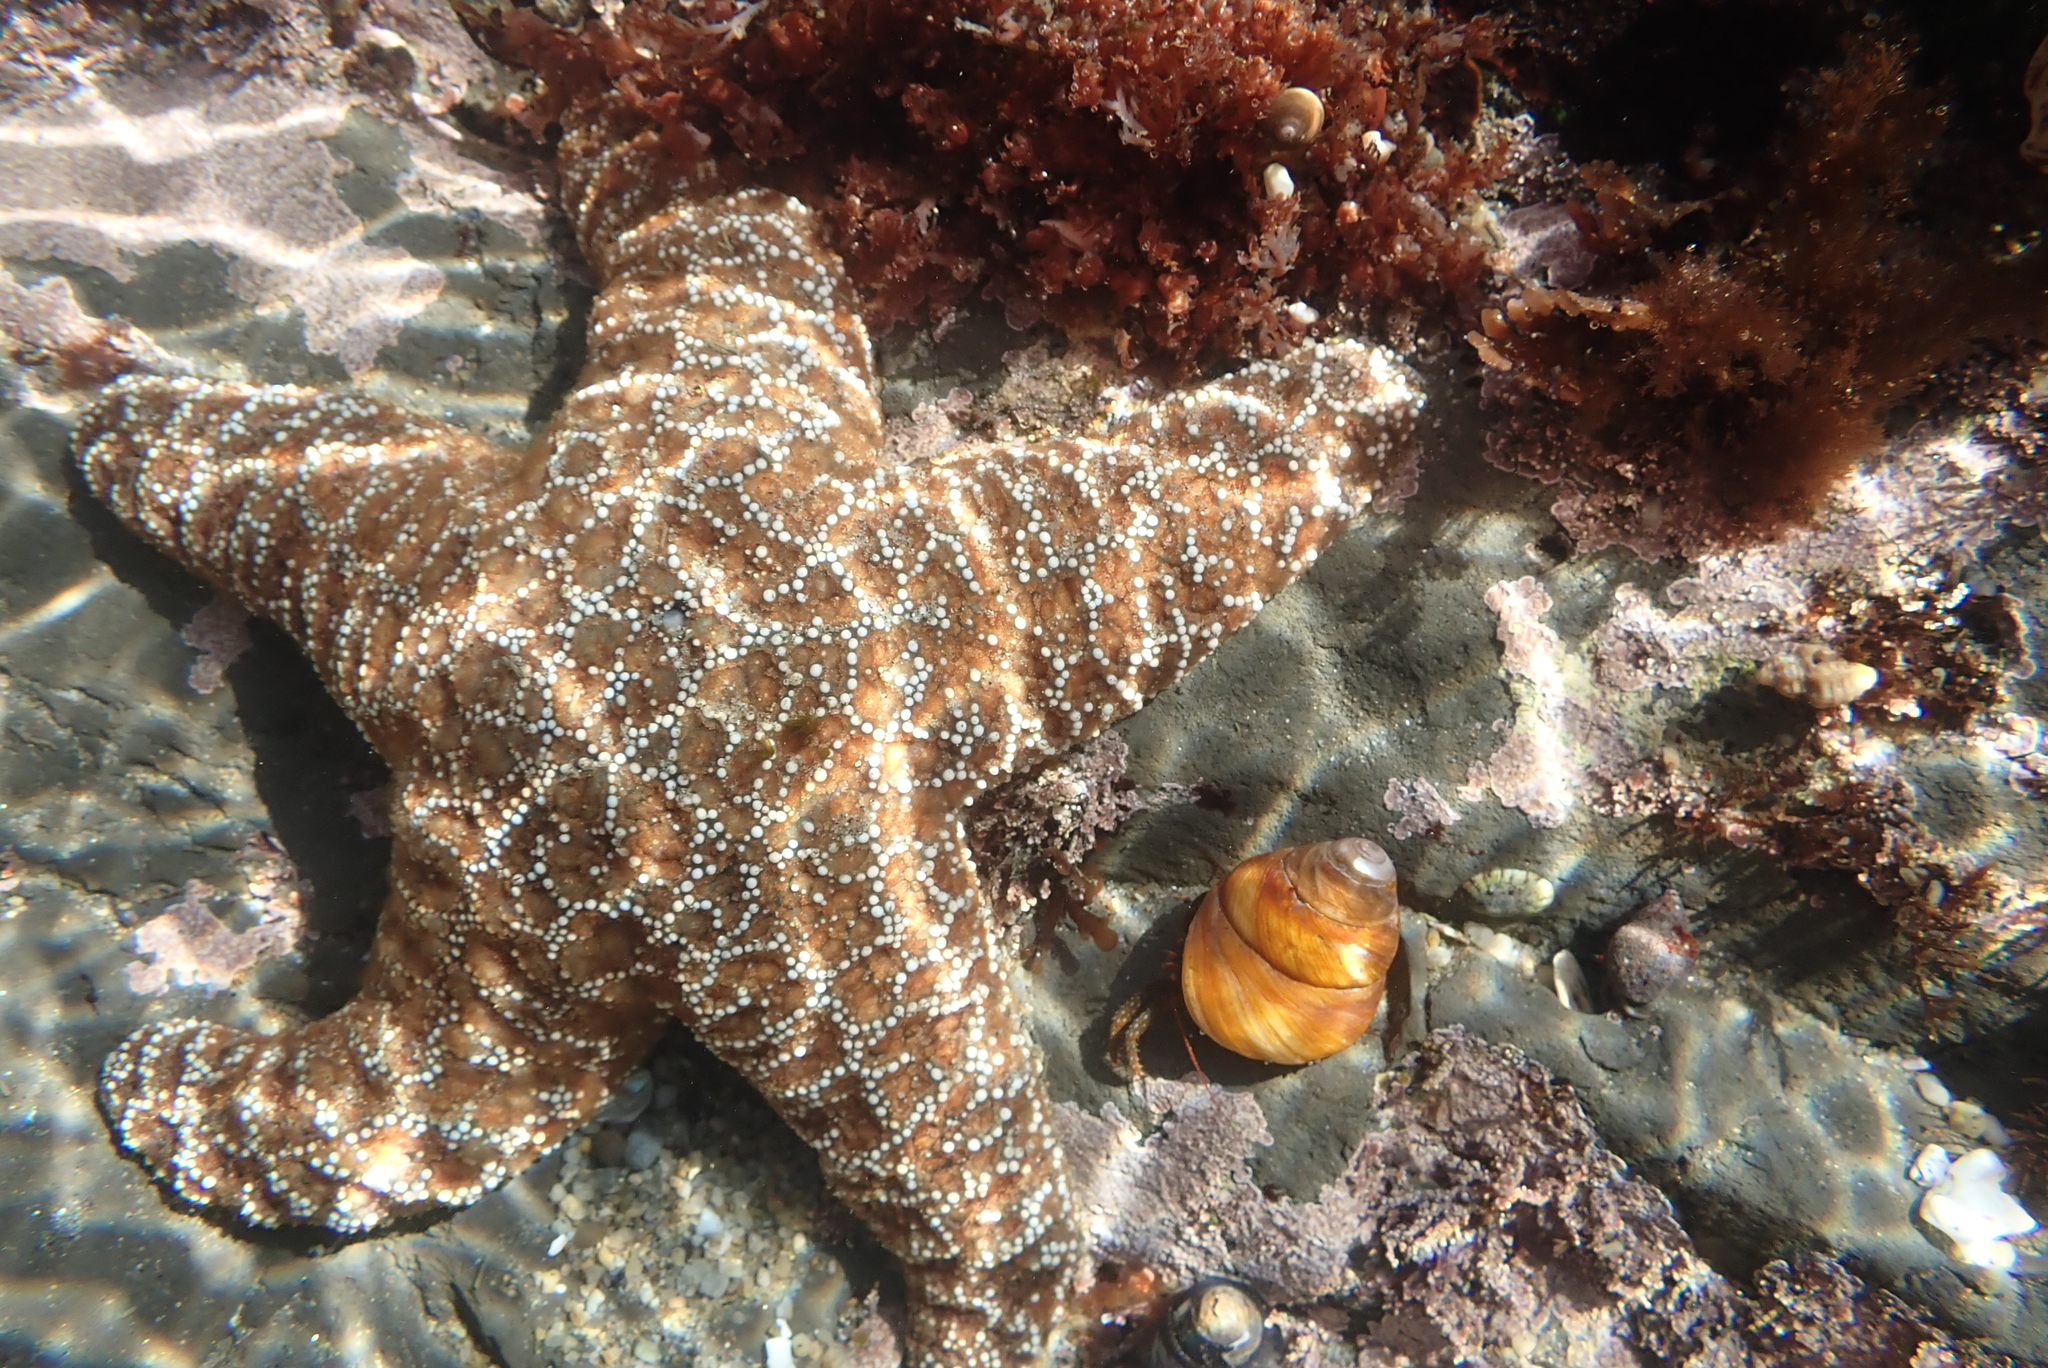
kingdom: Animalia
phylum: Echinodermata
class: Asteroidea
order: Forcipulatida
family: Asteriidae
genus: Pisaster
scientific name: Pisaster ochraceus
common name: Ochre stars
